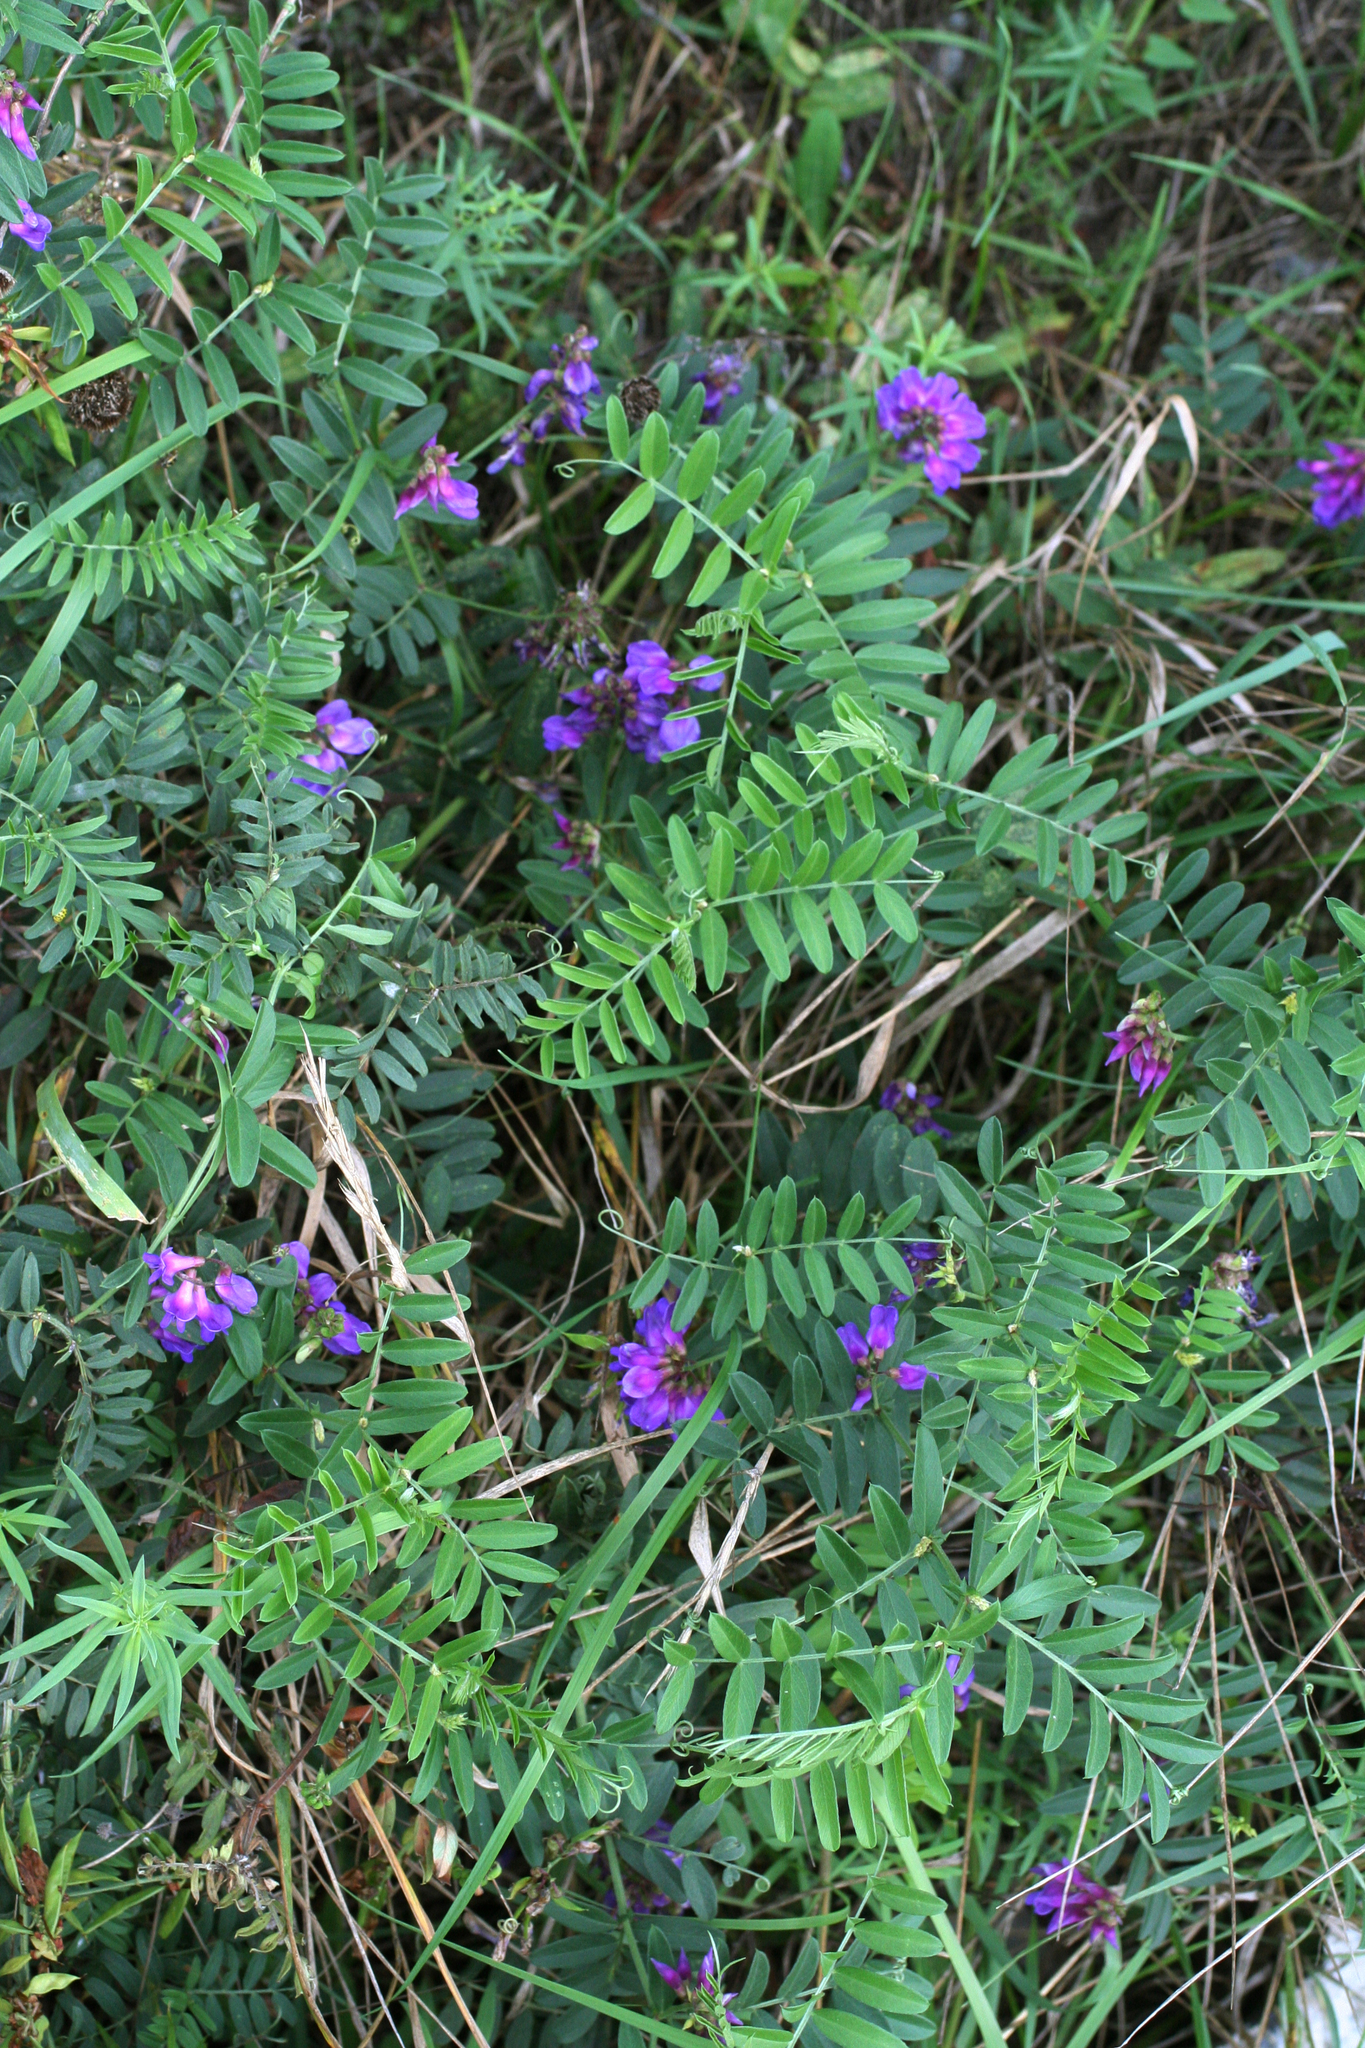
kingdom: Plantae
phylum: Tracheophyta
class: Magnoliopsida
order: Fabales
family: Fabaceae
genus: Vicia
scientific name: Vicia amoena
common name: Cheder ebs
